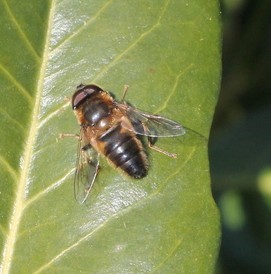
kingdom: Animalia
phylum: Arthropoda
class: Insecta
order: Diptera
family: Syrphidae
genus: Eristalis
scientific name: Eristalis pertinax
